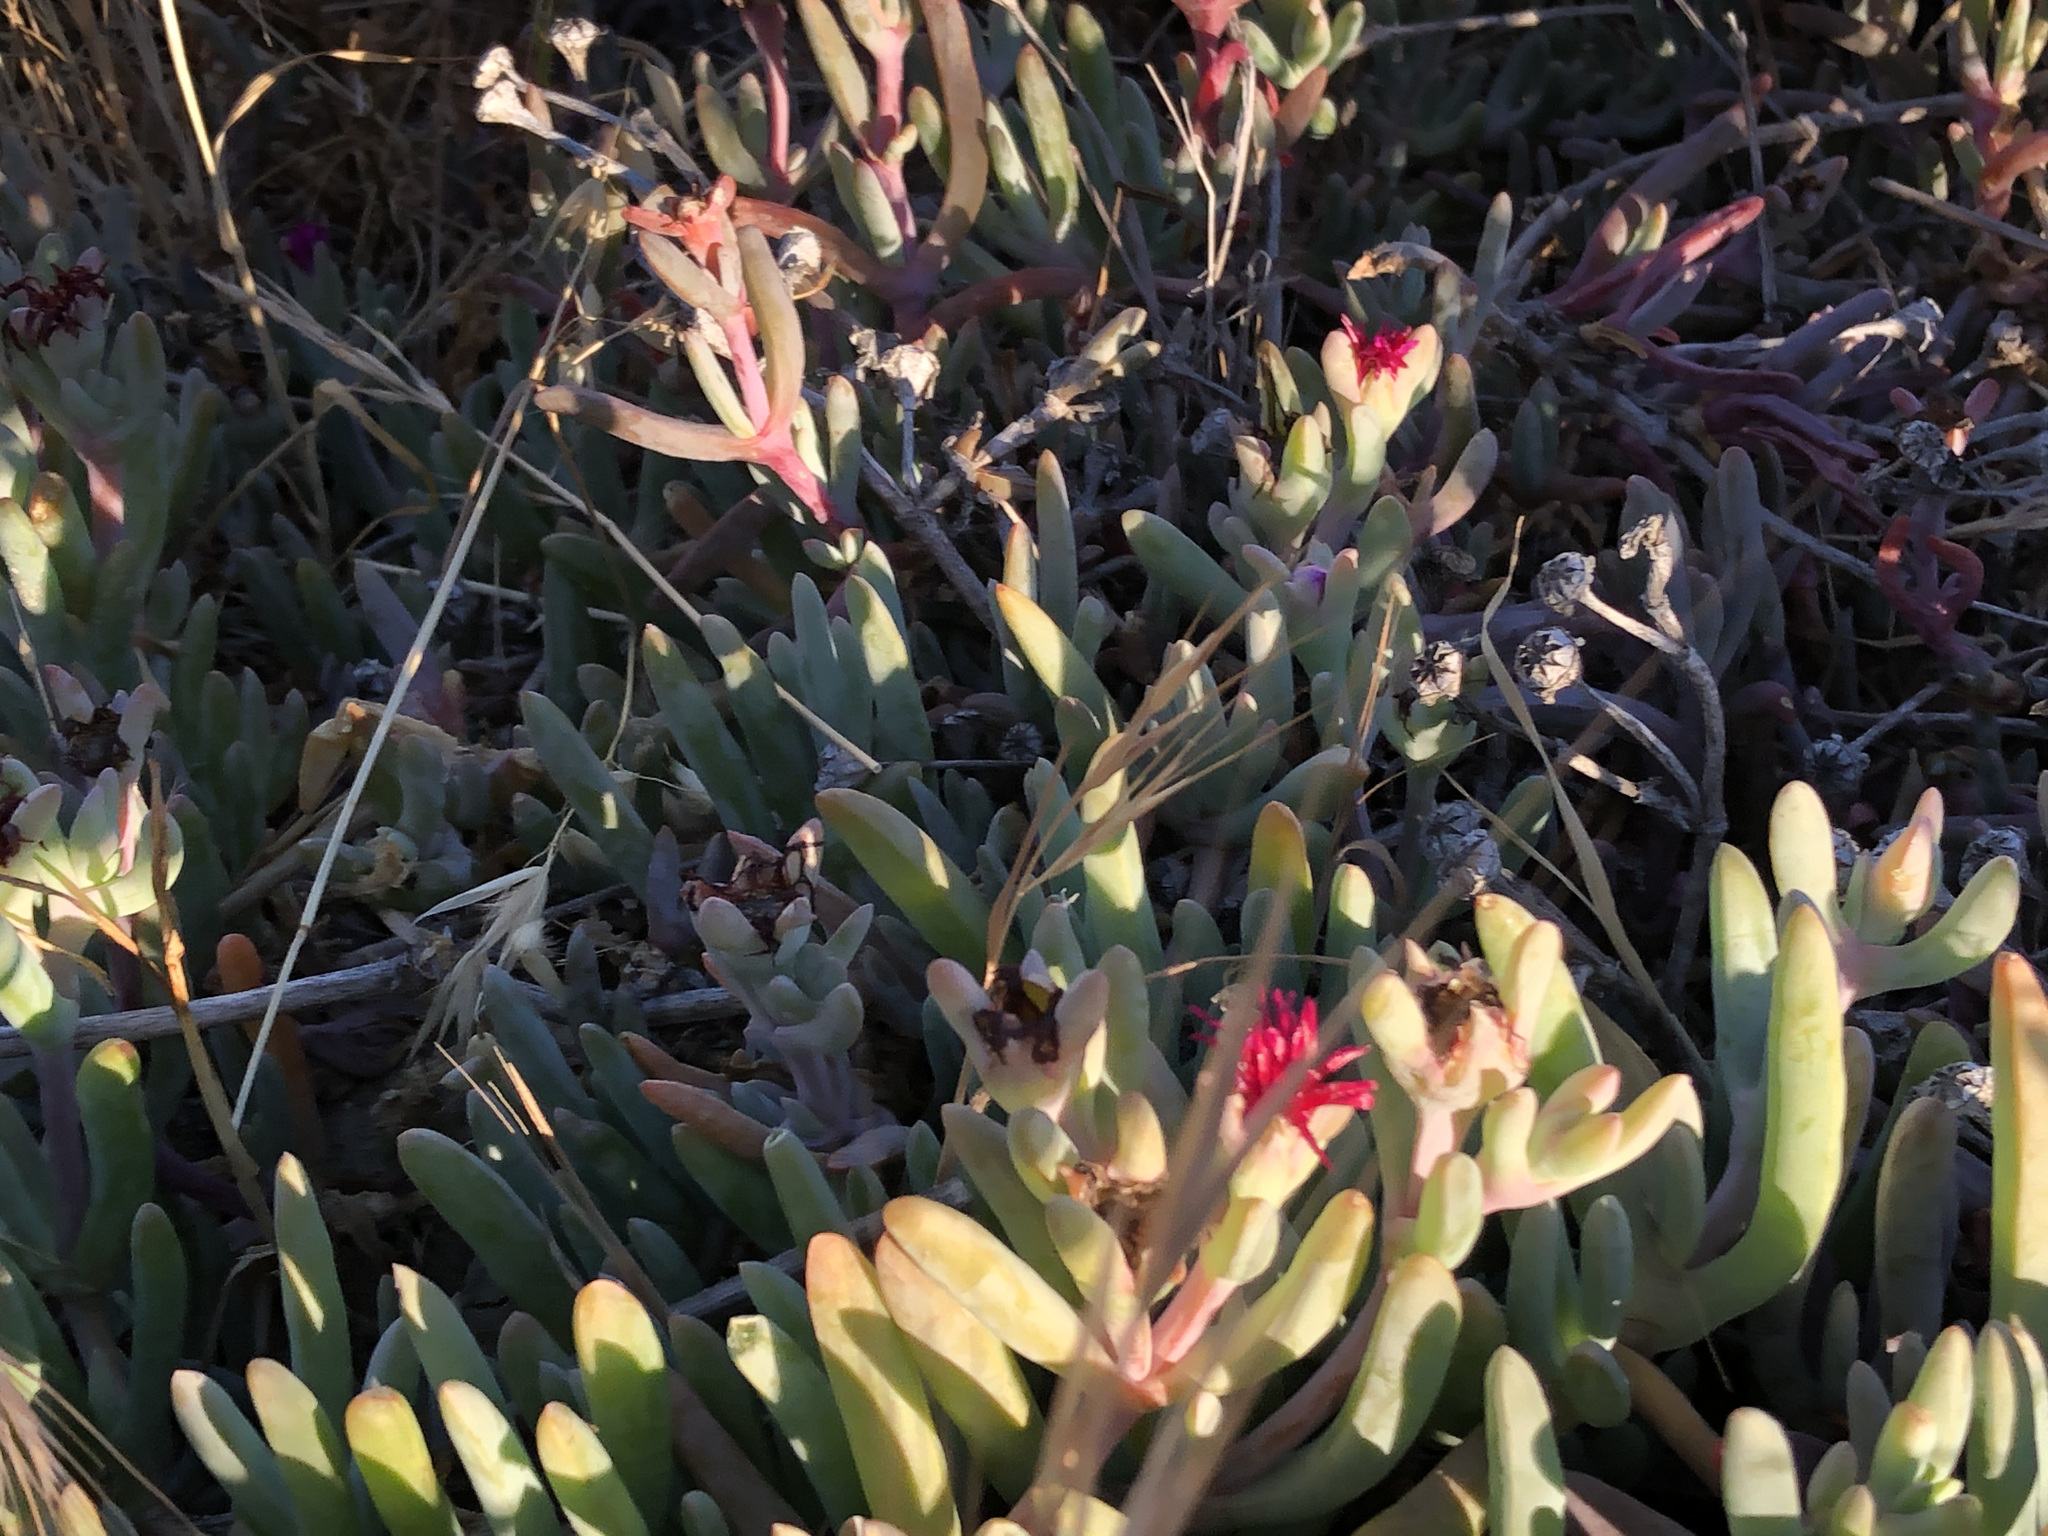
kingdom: Plantae
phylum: Tracheophyta
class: Magnoliopsida
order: Caryophyllales
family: Aizoaceae
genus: Malephora
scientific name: Malephora crocea
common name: Coppery mesemb
